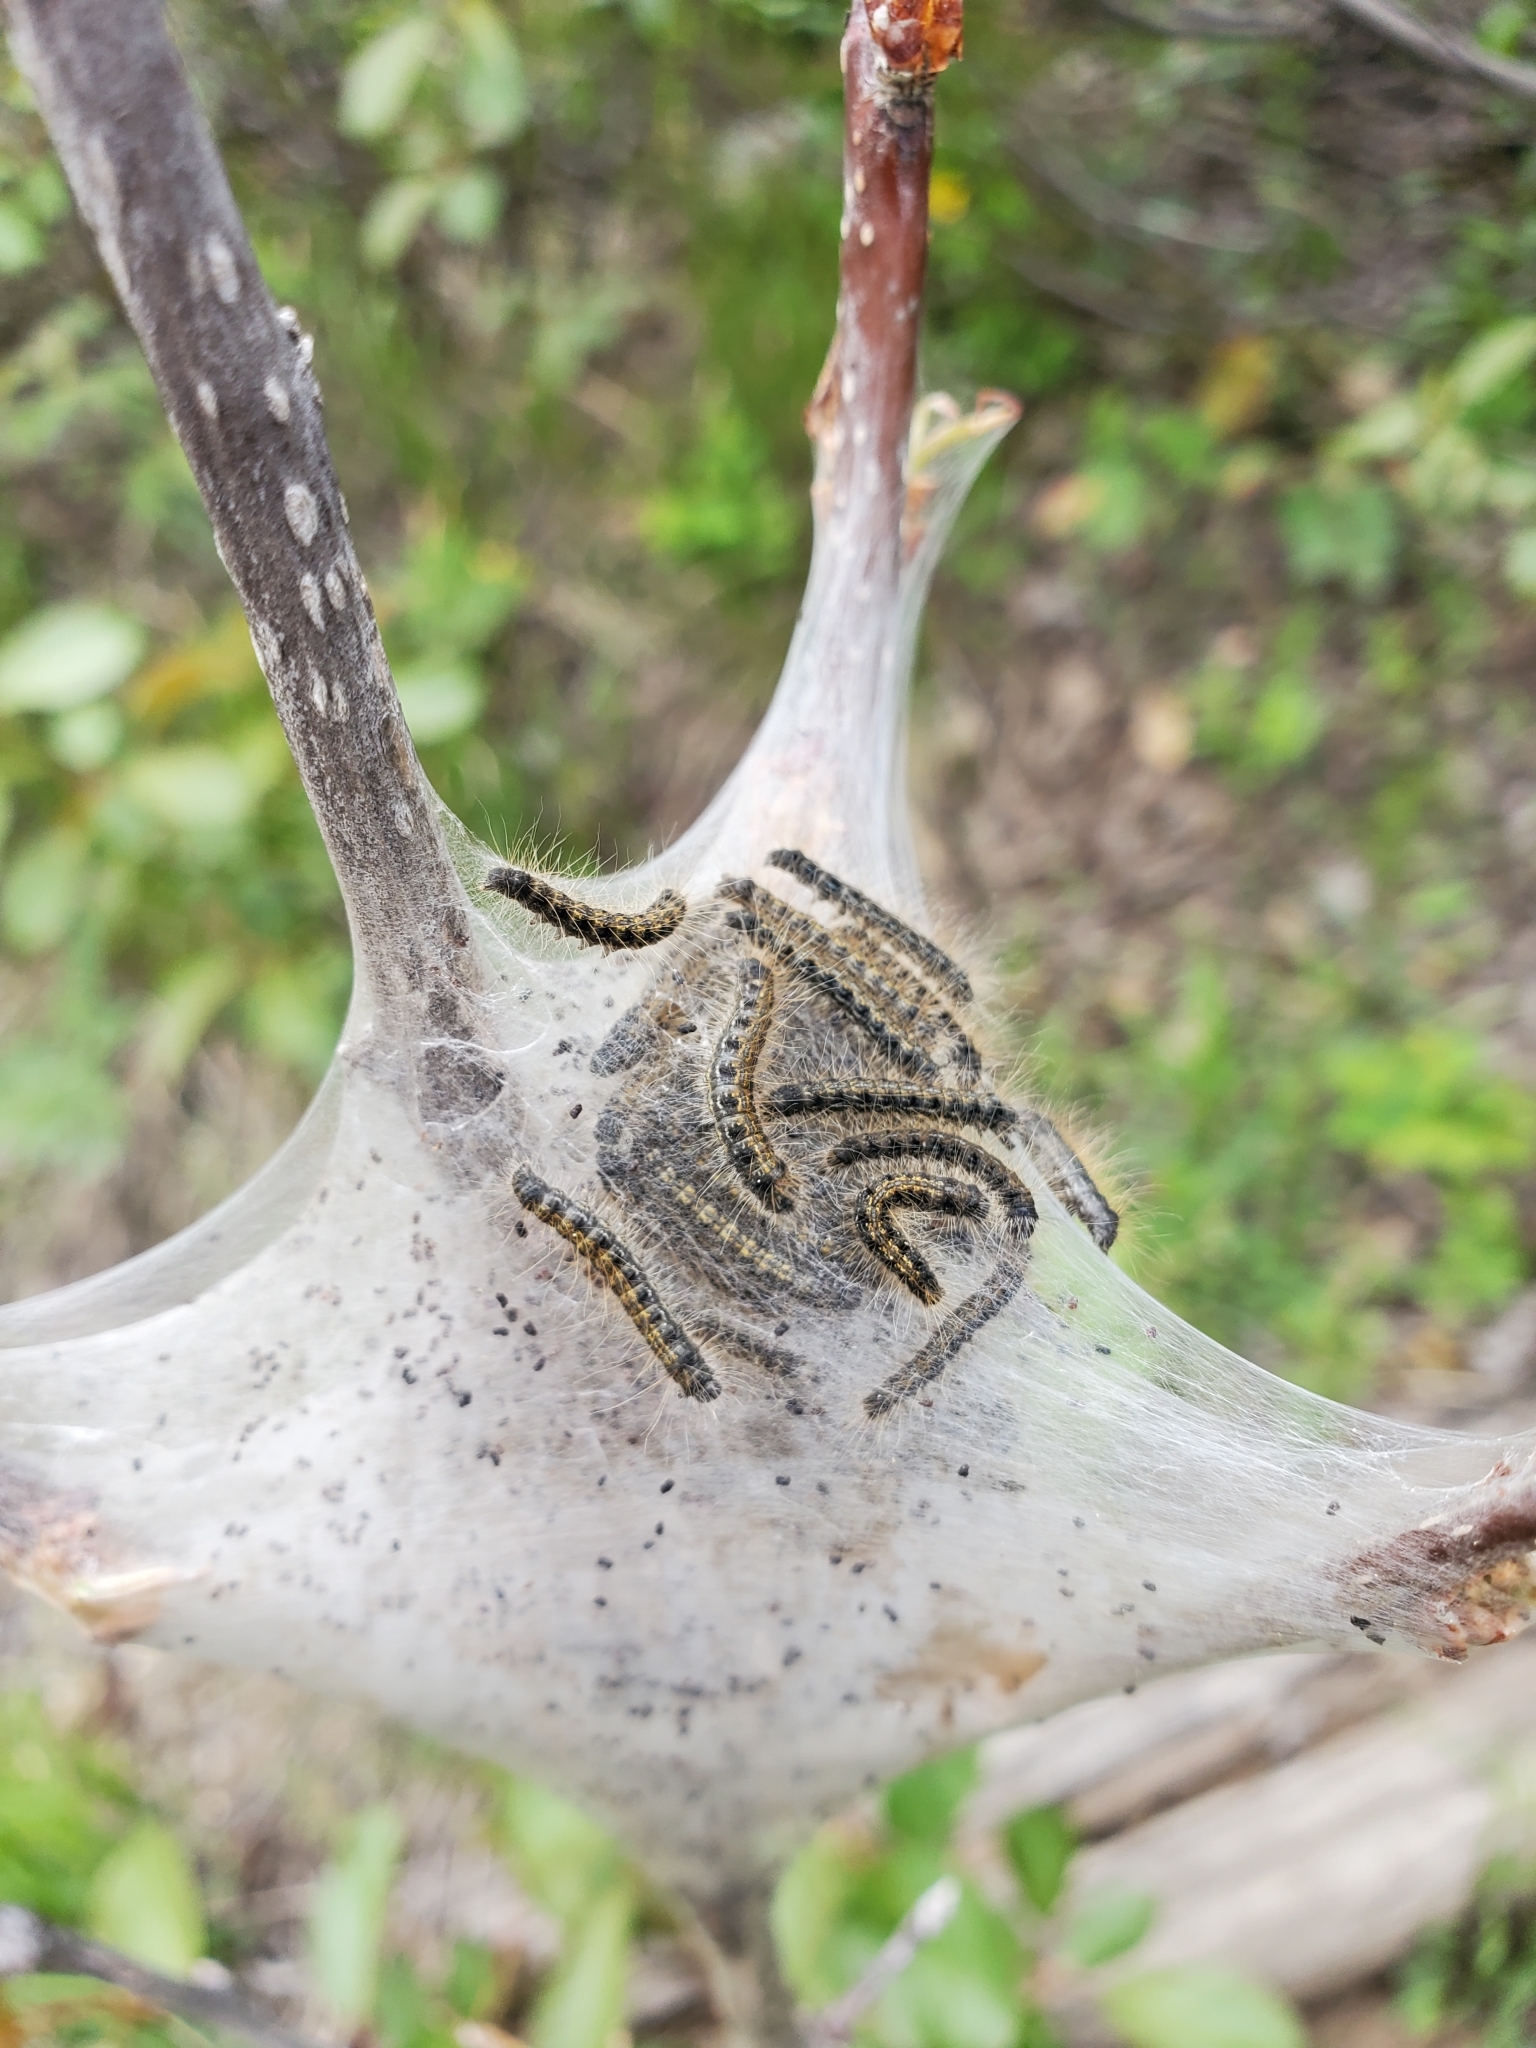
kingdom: Animalia
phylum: Arthropoda
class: Insecta
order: Lepidoptera
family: Lasiocampidae
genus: Malacosoma
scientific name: Malacosoma californica
